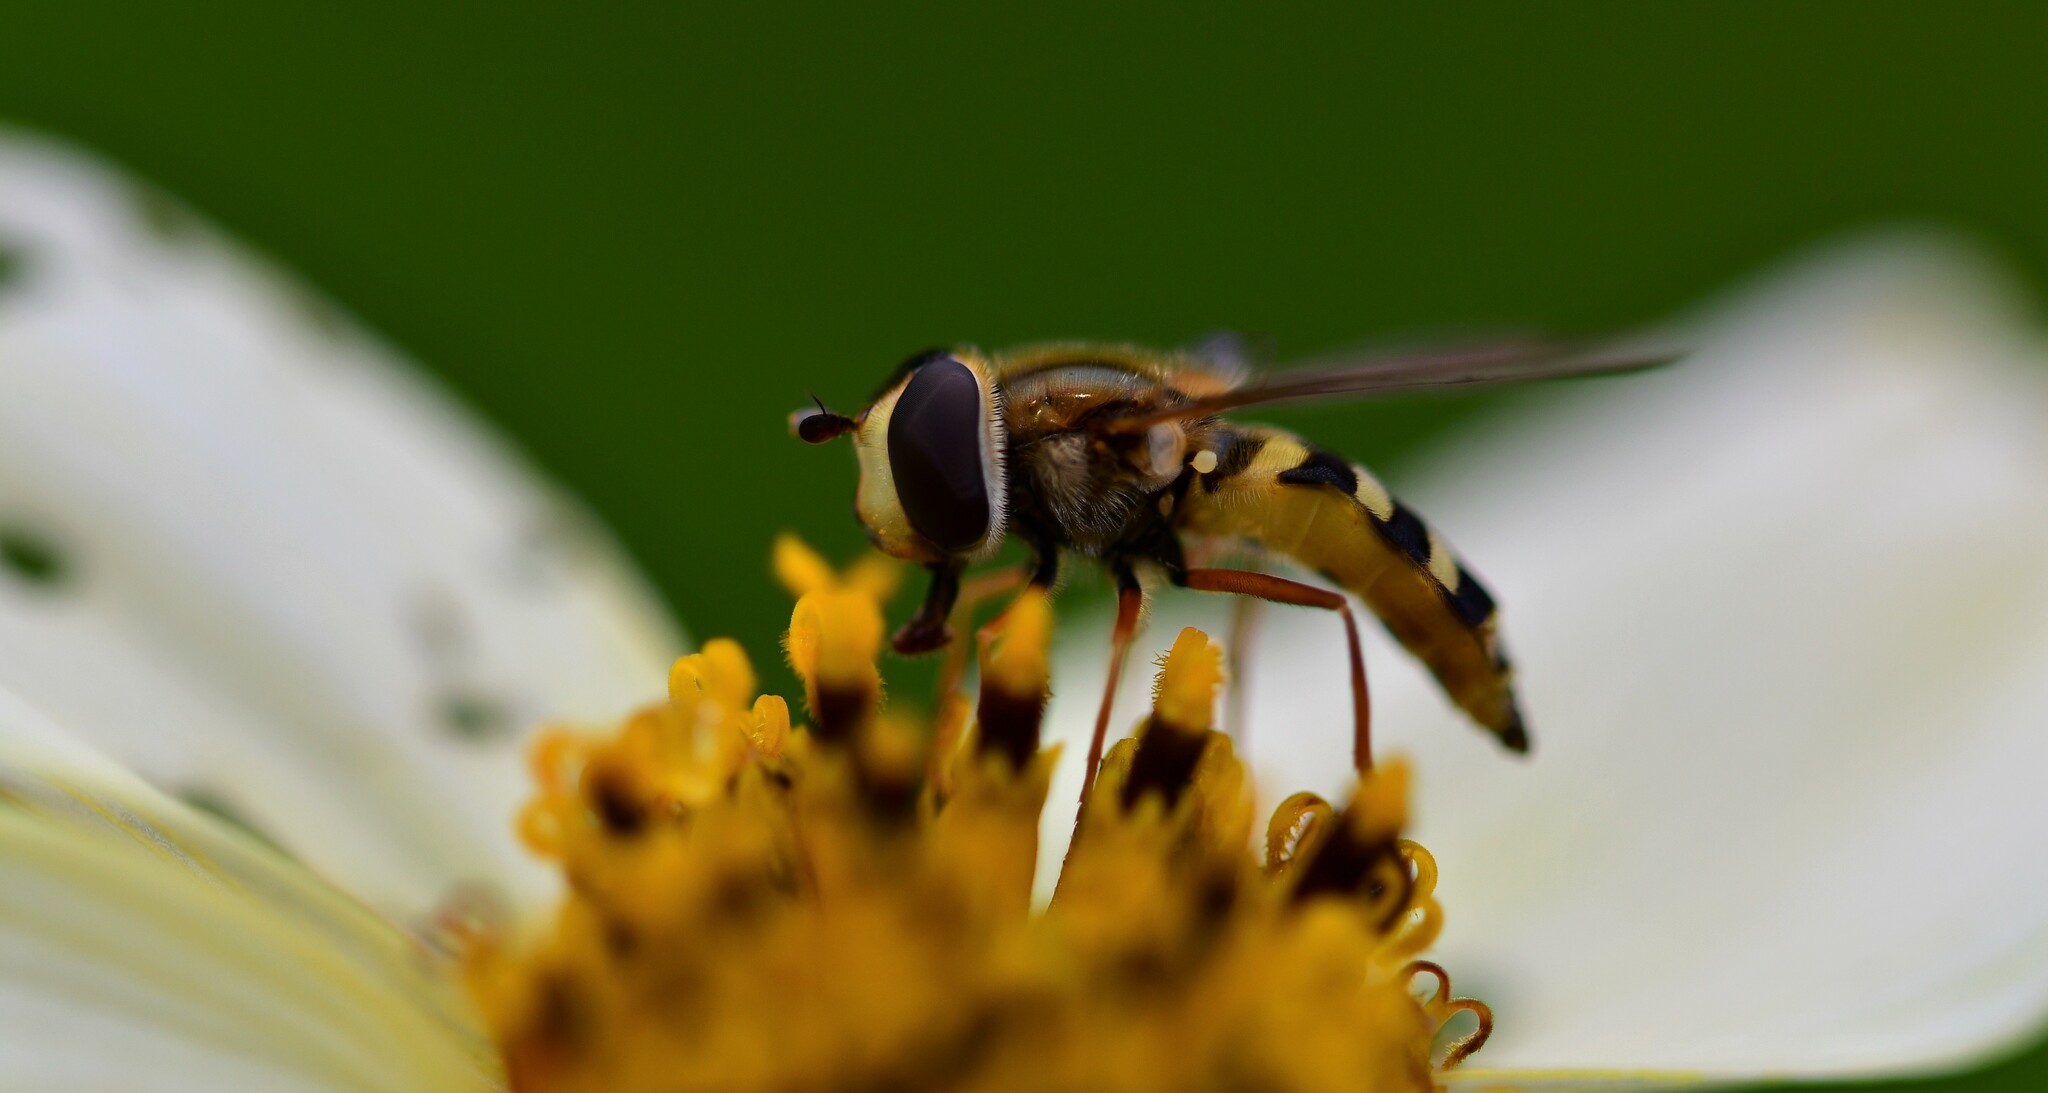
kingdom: Animalia
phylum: Arthropoda
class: Insecta
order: Diptera
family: Syrphidae
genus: Eupeodes
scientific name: Eupeodes corollae
